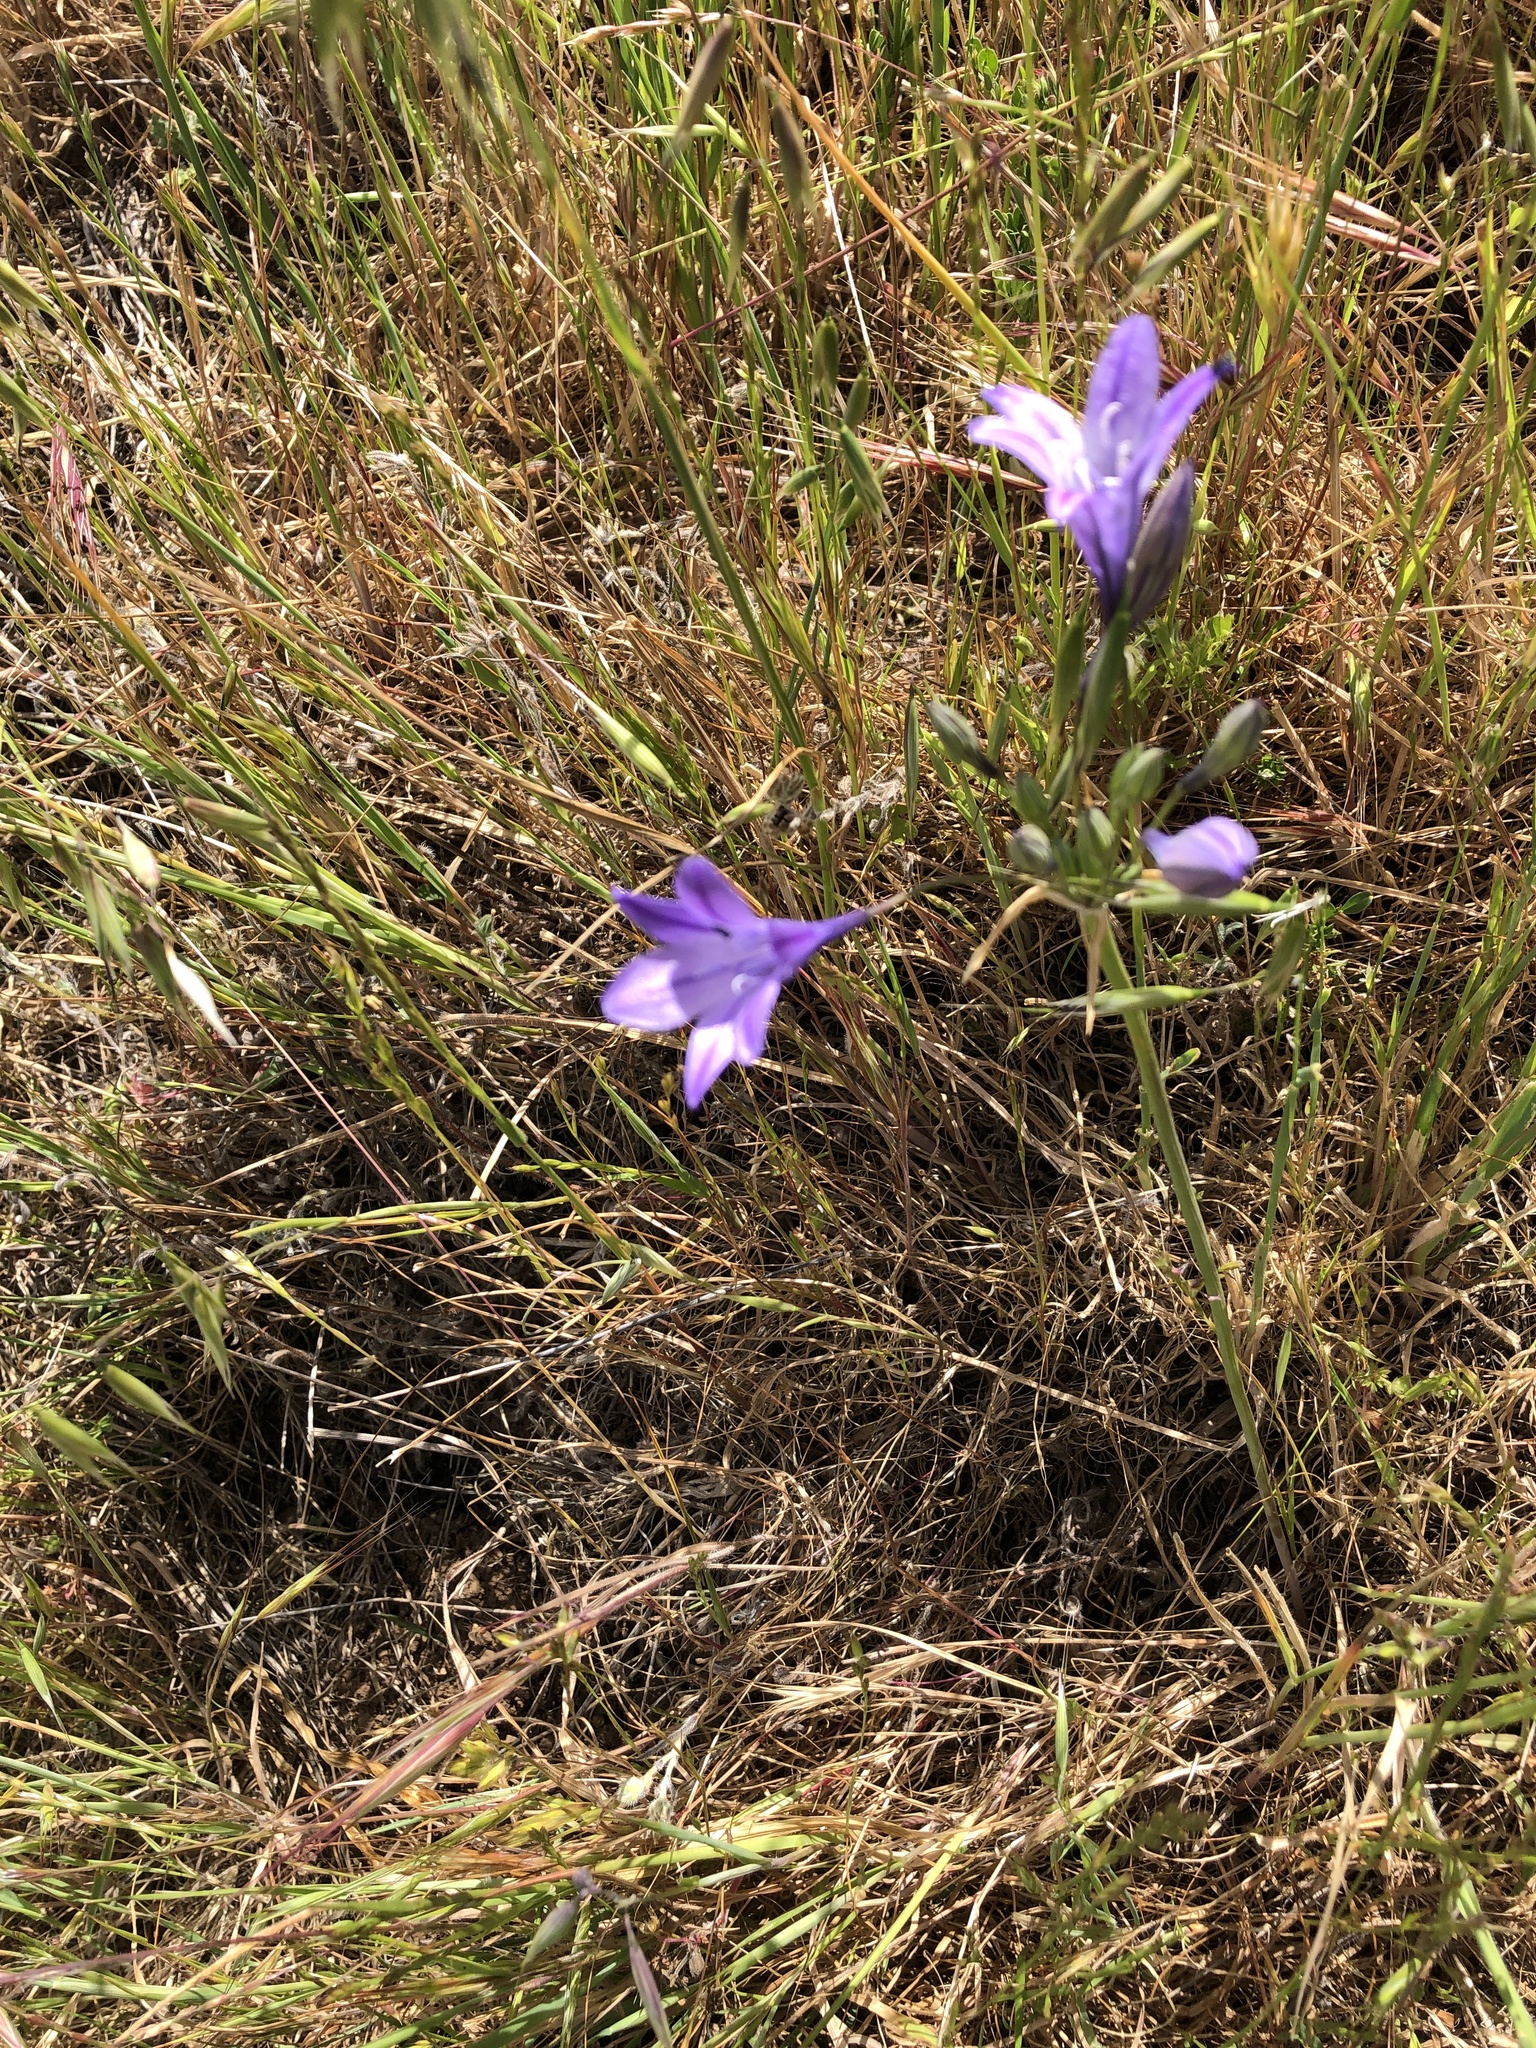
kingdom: Plantae
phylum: Tracheophyta
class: Liliopsida
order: Asparagales
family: Asparagaceae
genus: Triteleia
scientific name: Triteleia laxa
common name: Triplet-lily
